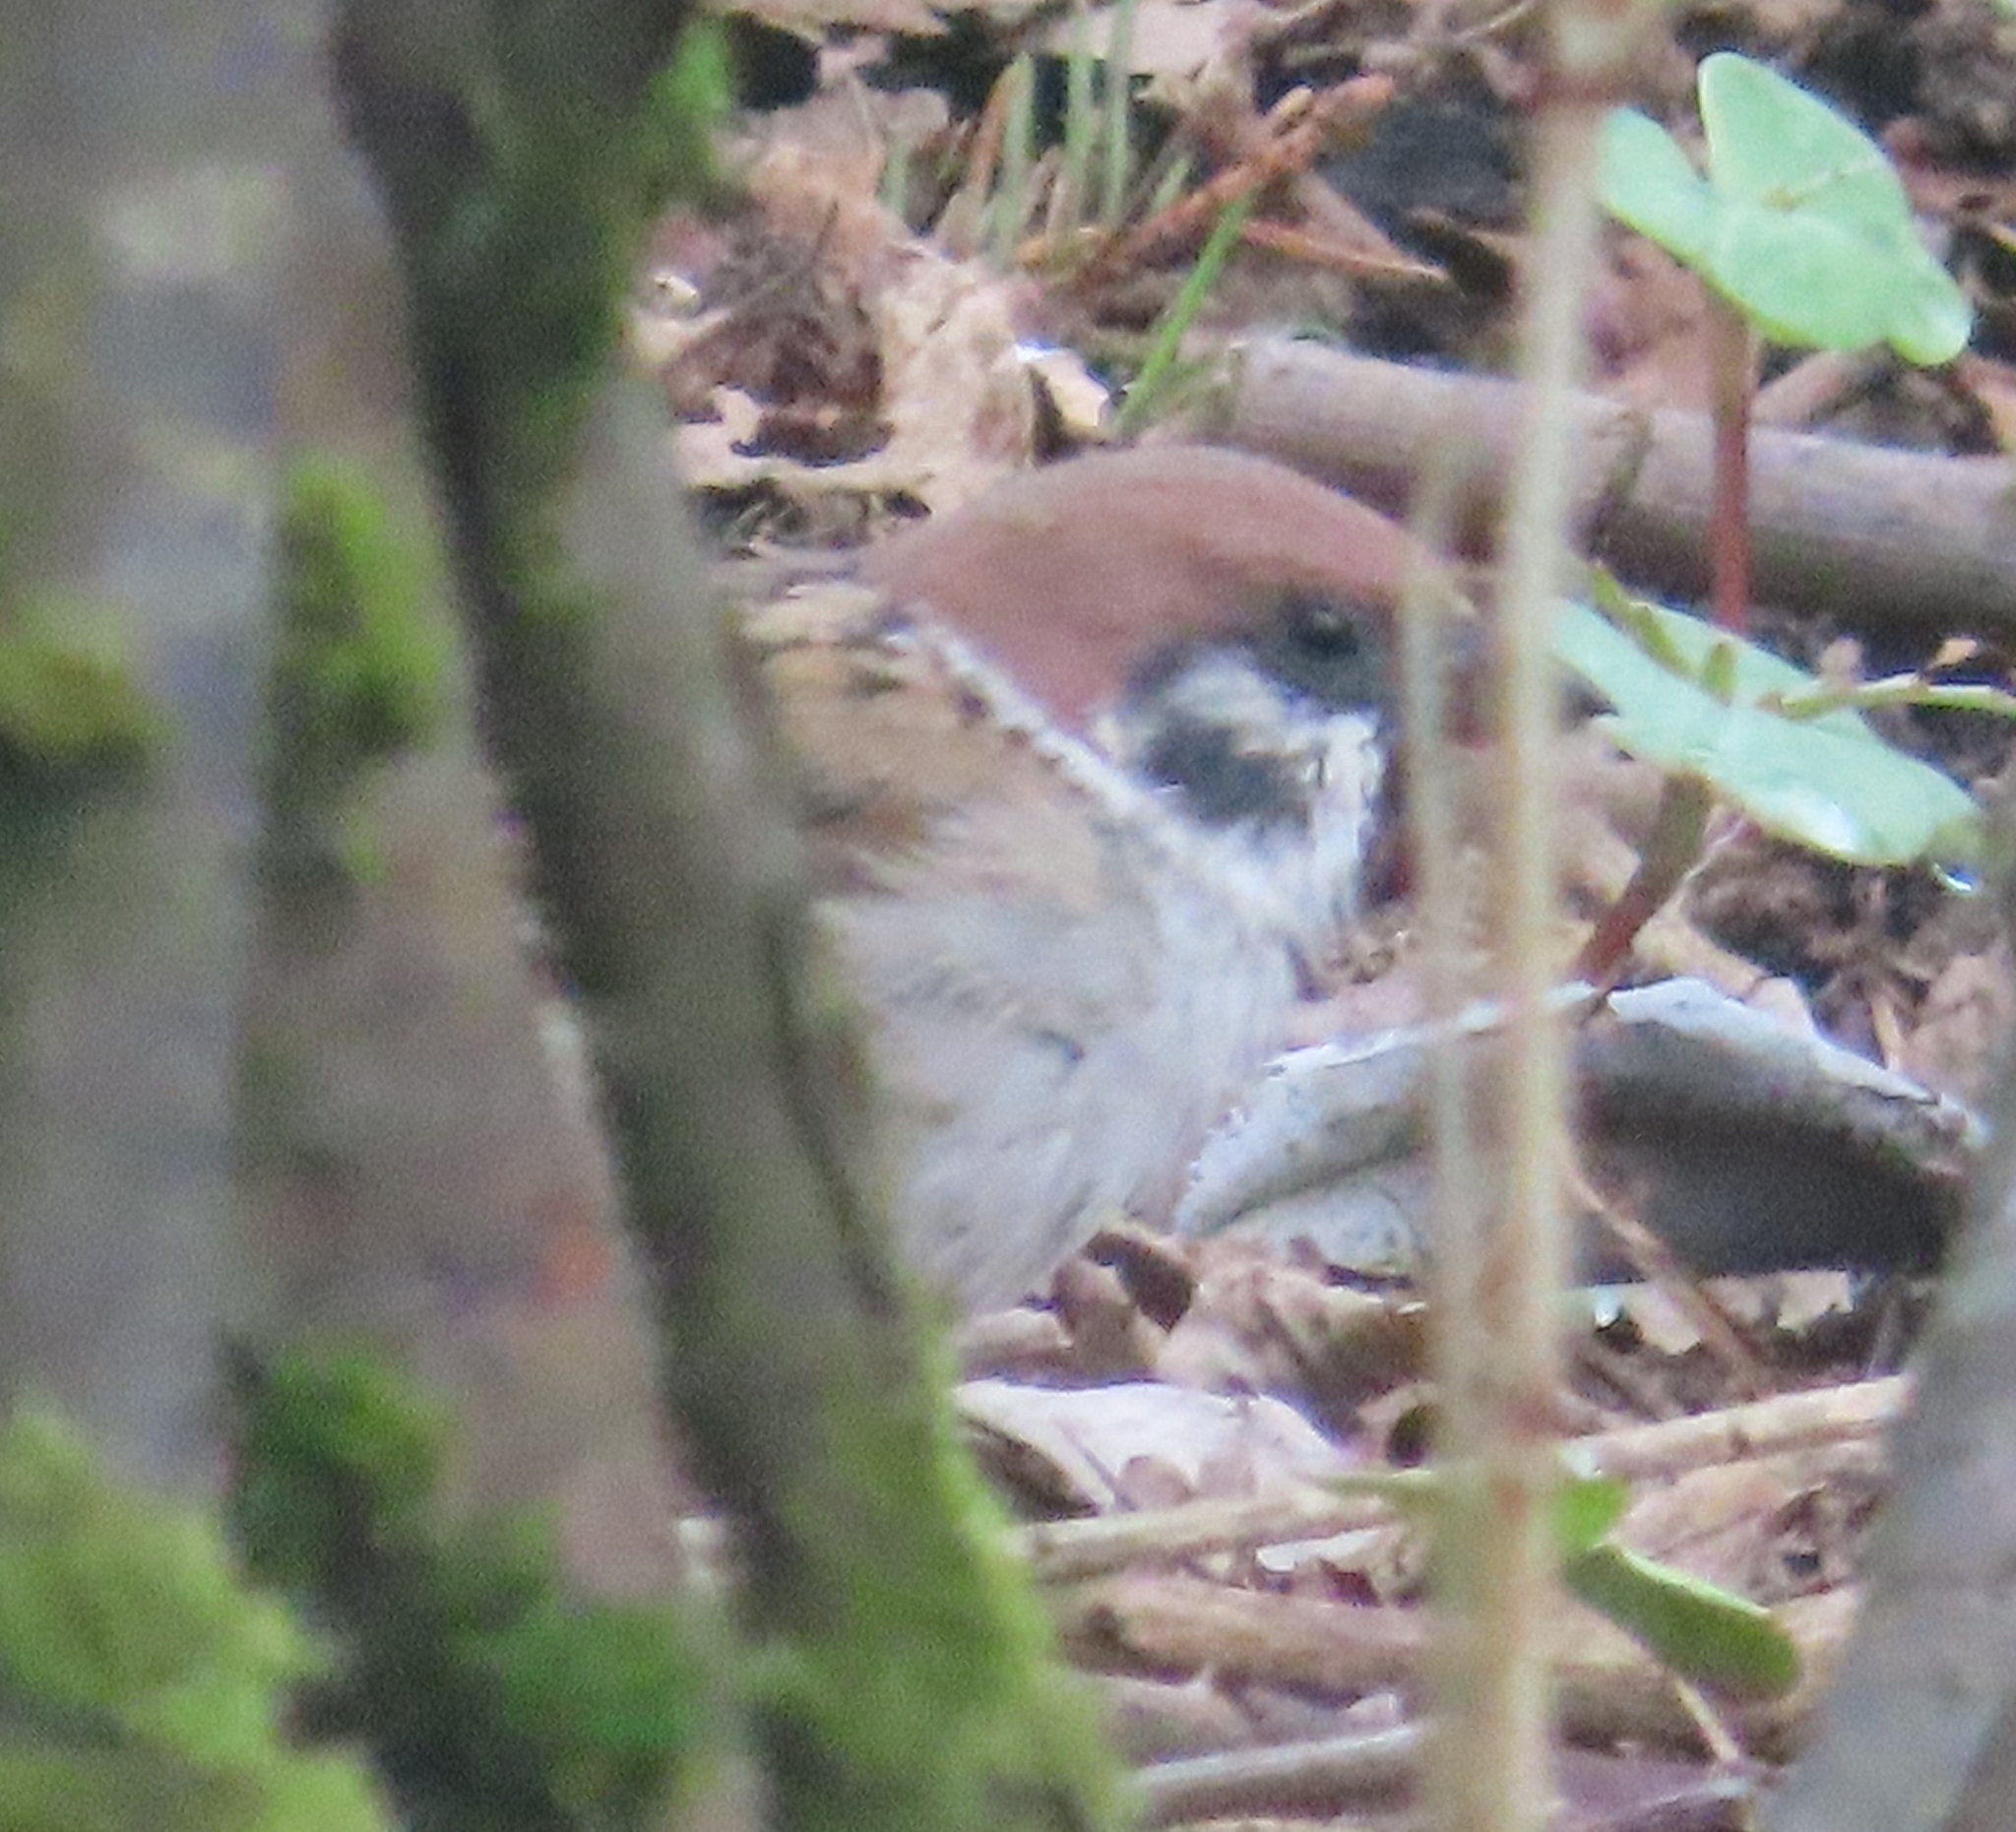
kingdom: Animalia
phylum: Chordata
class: Aves
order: Passeriformes
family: Passeridae
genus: Passer
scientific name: Passer montanus
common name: Eurasian tree sparrow
